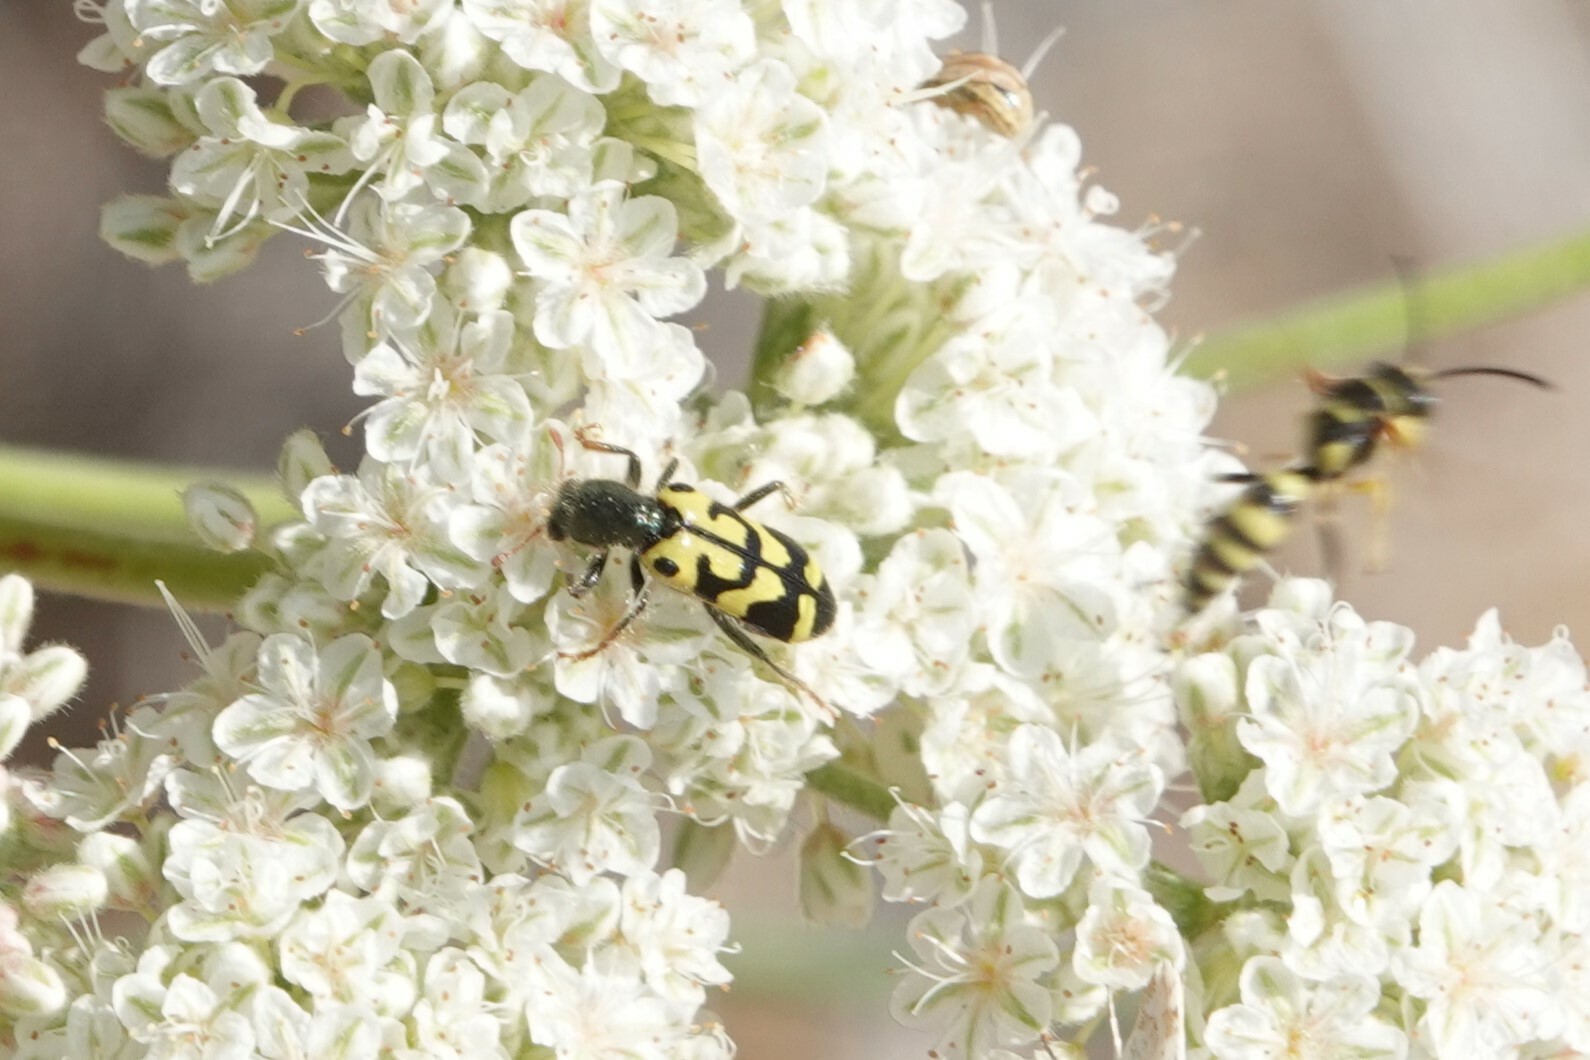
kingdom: Animalia
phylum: Arthropoda
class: Insecta
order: Coleoptera
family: Cleridae
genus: Trichodes
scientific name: Trichodes ornatus
